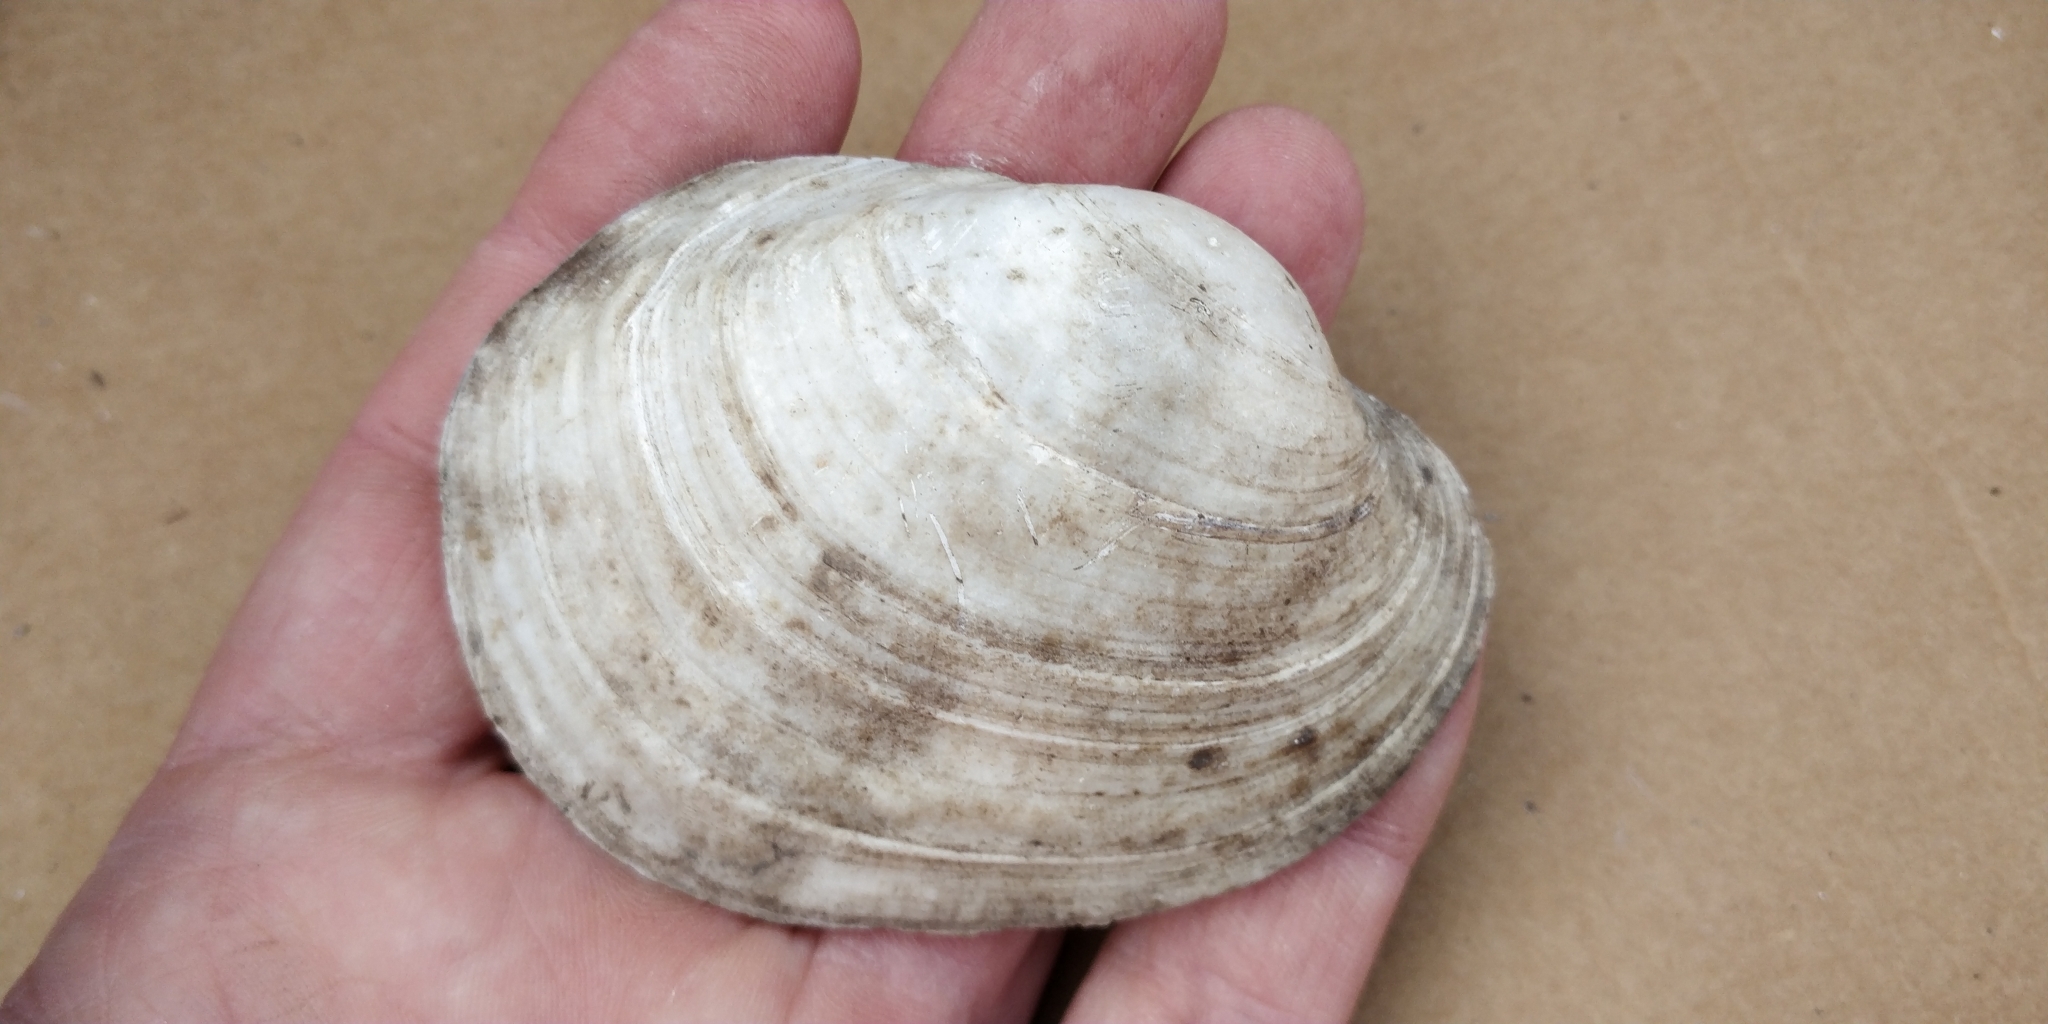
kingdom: Animalia
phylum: Mollusca
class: Bivalvia
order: Unionida
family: Unionidae
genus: Lampsilis
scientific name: Lampsilis cardium
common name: Plain pocketbook
